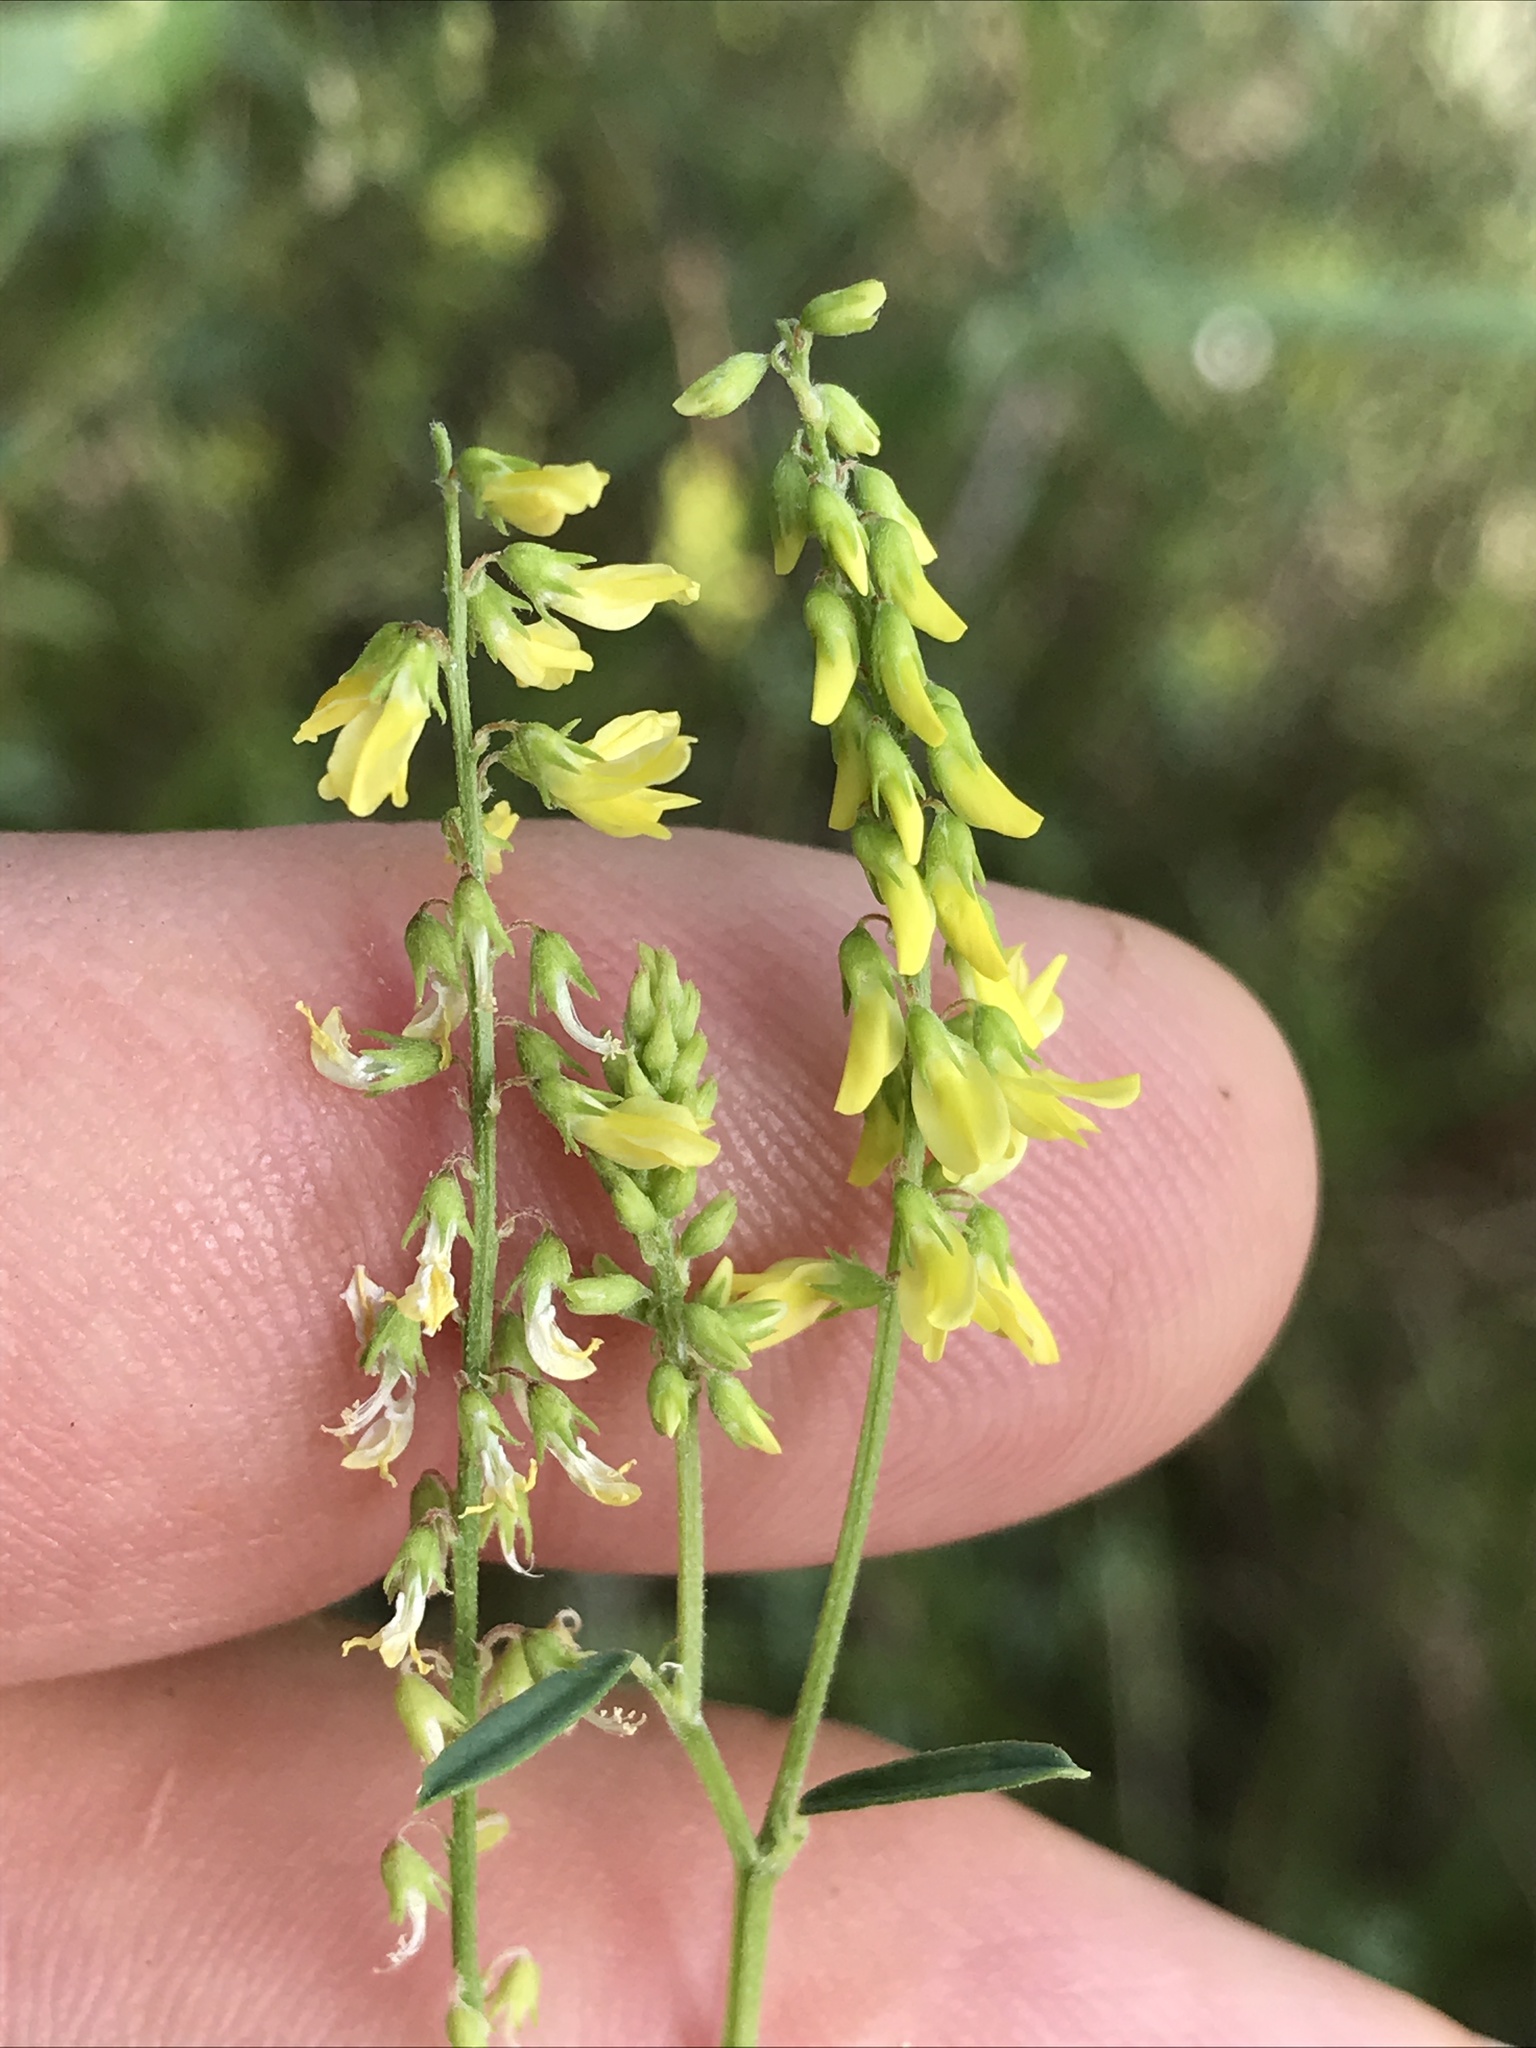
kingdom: Plantae
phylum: Tracheophyta
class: Magnoliopsida
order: Fabales
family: Fabaceae
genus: Melilotus
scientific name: Melilotus officinalis
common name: Sweetclover
